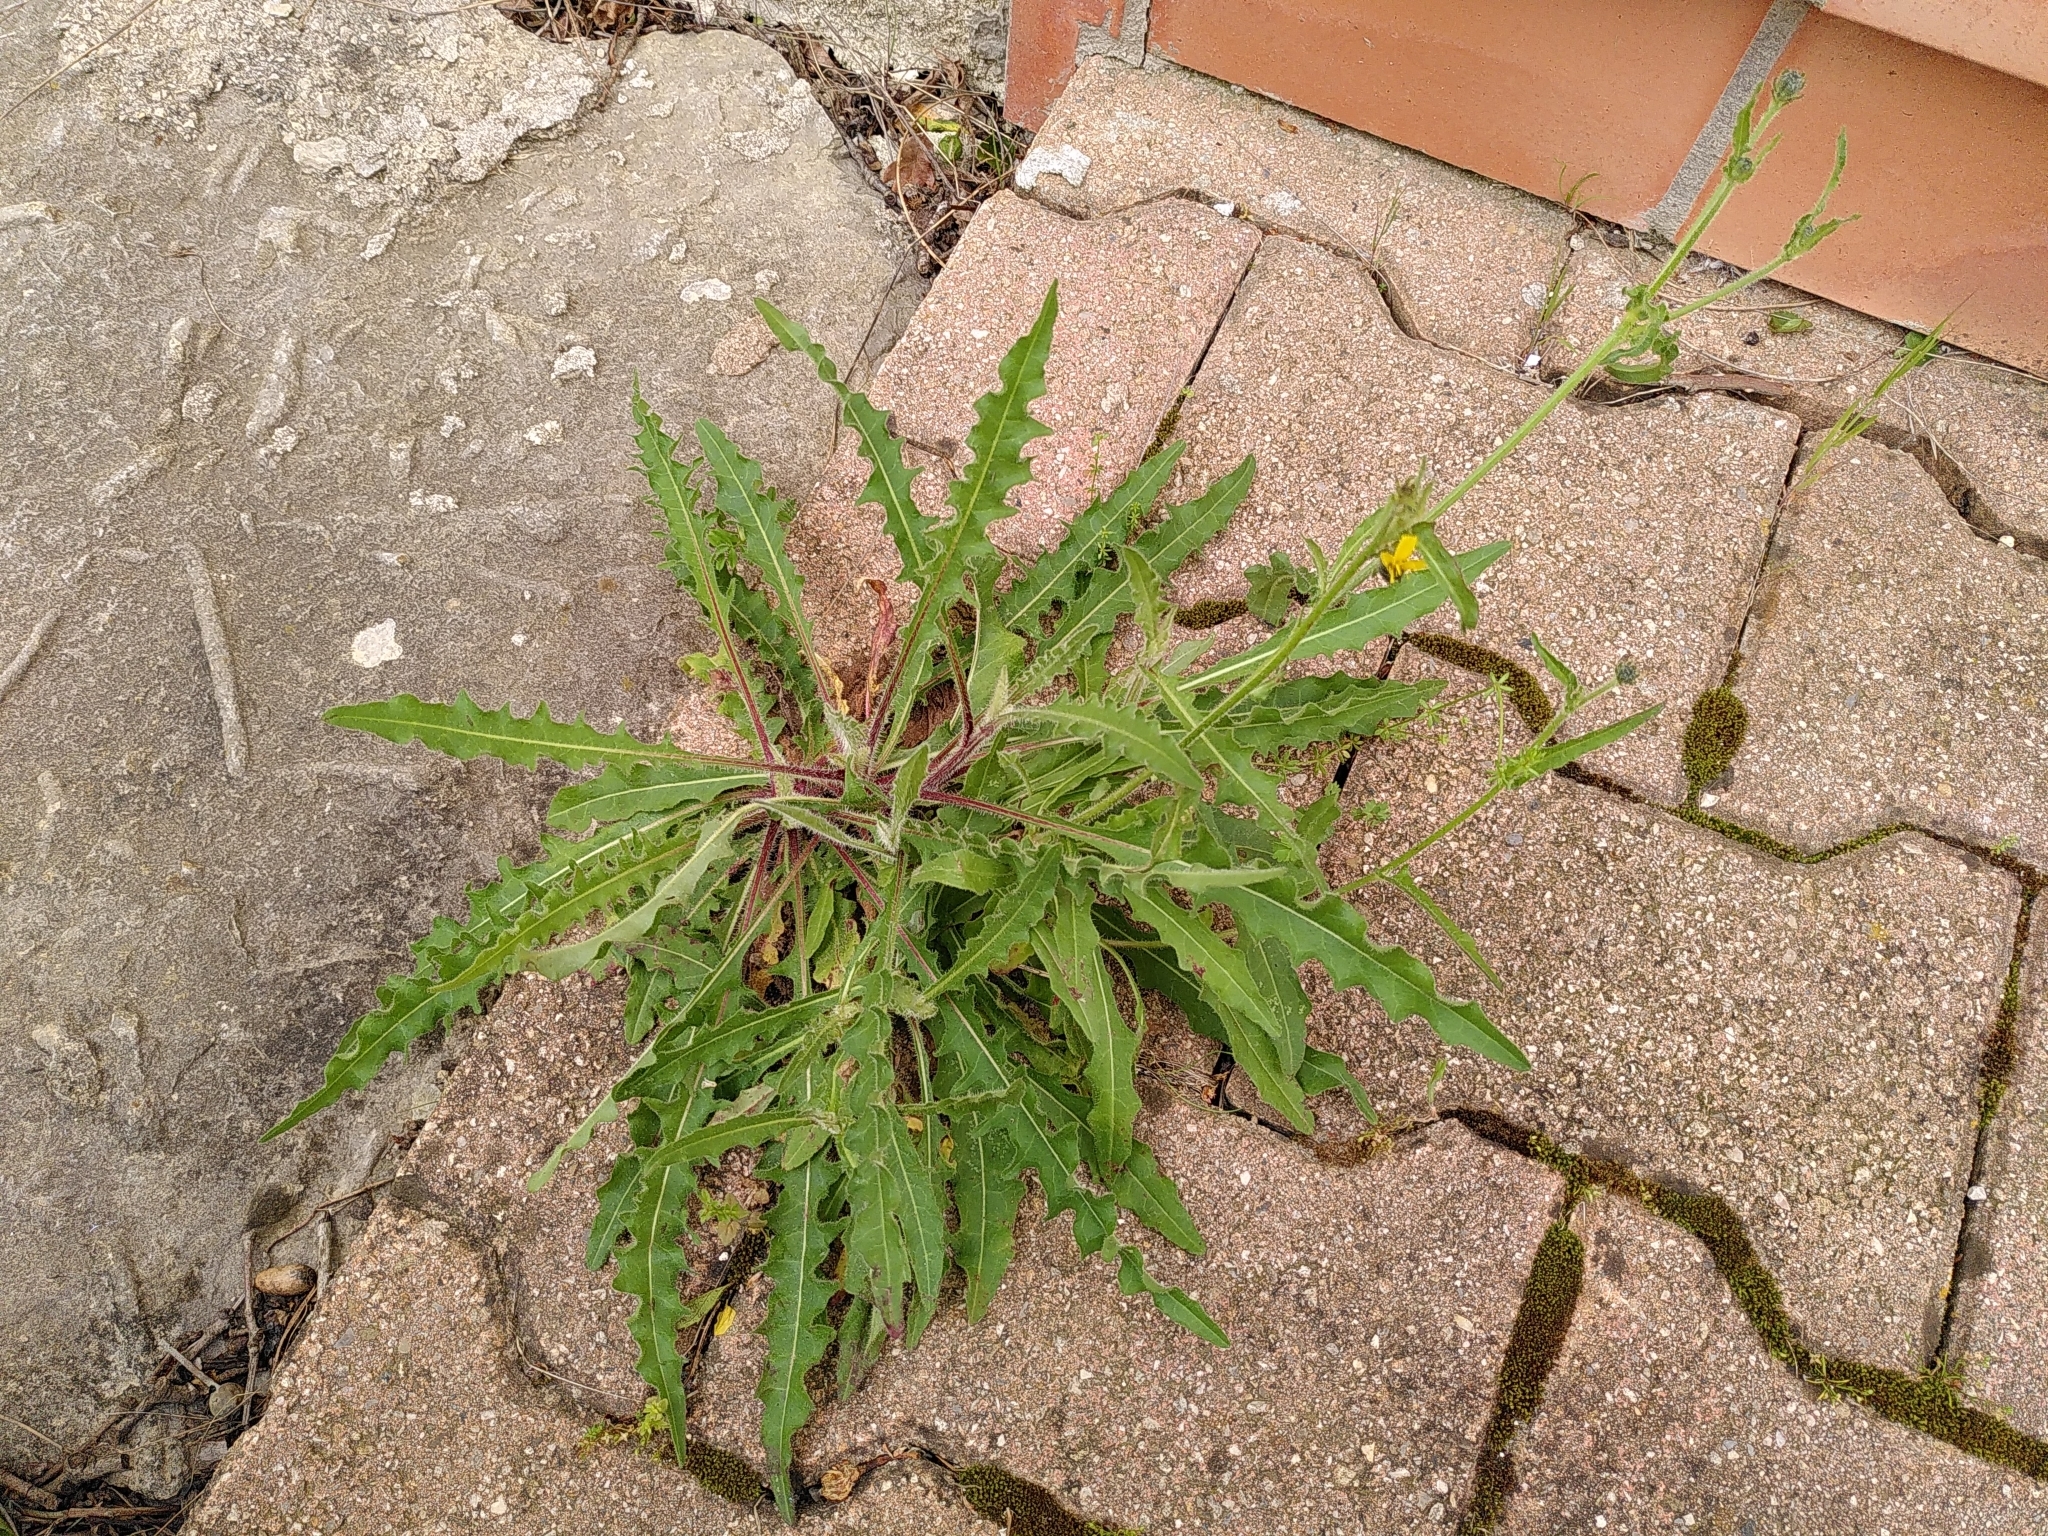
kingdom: Plantae
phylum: Tracheophyta
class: Magnoliopsida
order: Asterales
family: Asteraceae
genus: Picris
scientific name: Picris hieracioides
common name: Hawkweed oxtongue
